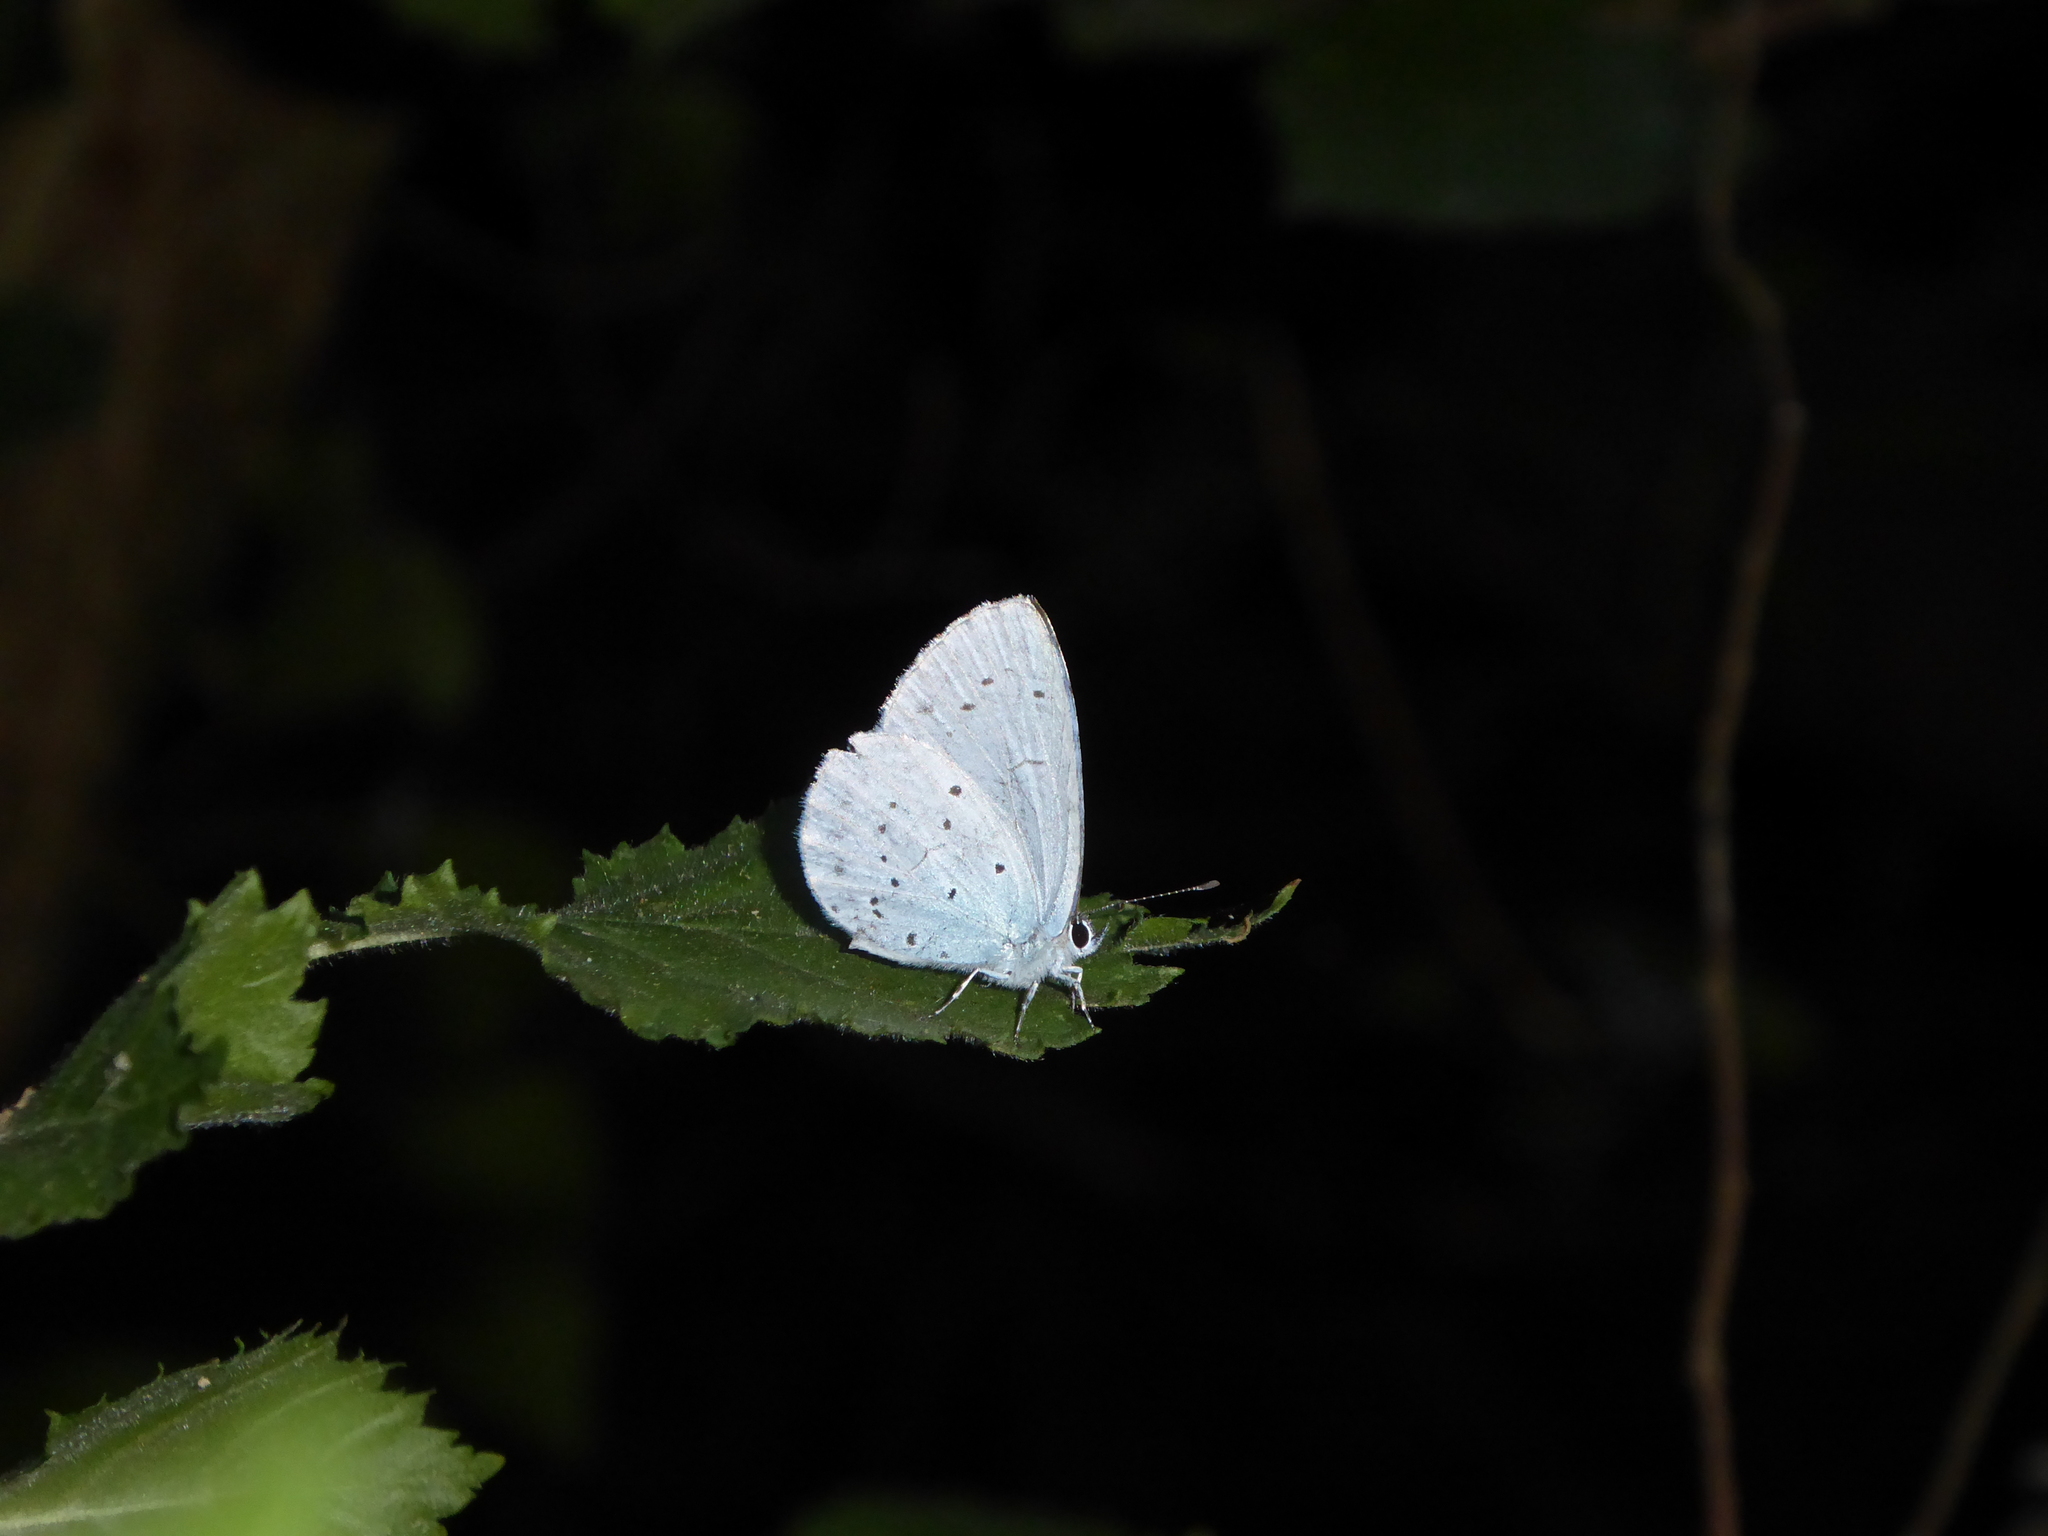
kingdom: Animalia
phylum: Arthropoda
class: Insecta
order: Lepidoptera
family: Lycaenidae
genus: Celastrina
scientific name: Celastrina argiolus
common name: Holly blue
